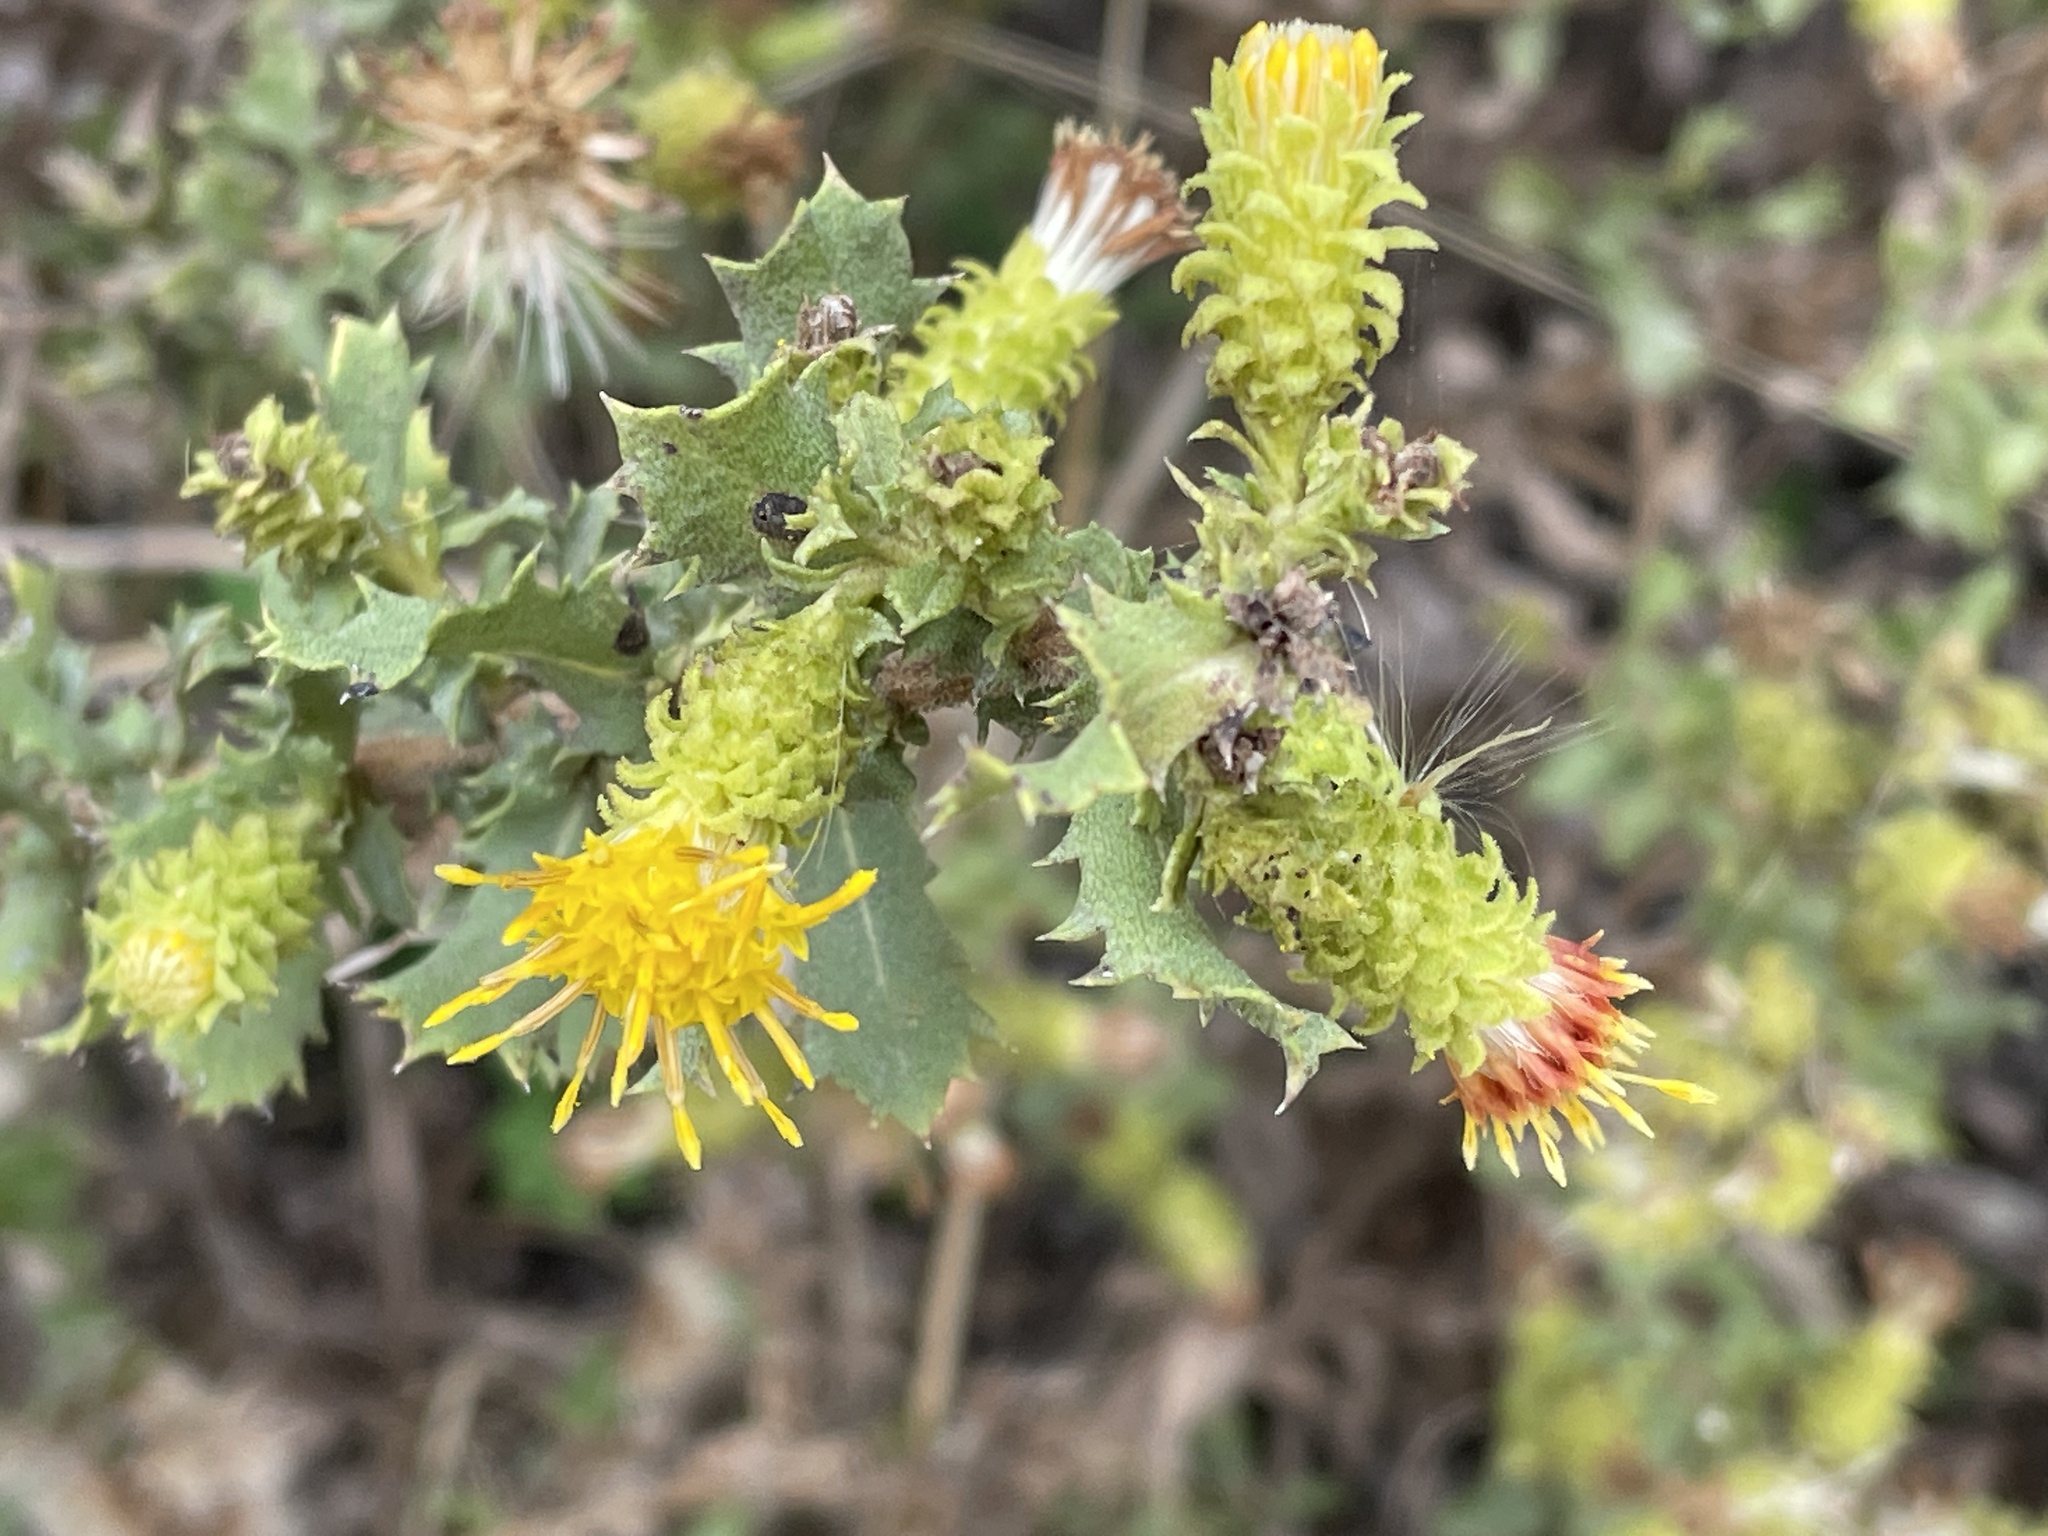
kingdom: Plantae
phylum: Tracheophyta
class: Magnoliopsida
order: Asterales
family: Asteraceae
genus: Hazardia
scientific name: Hazardia squarrosa
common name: Saw-tooth goldenbush
